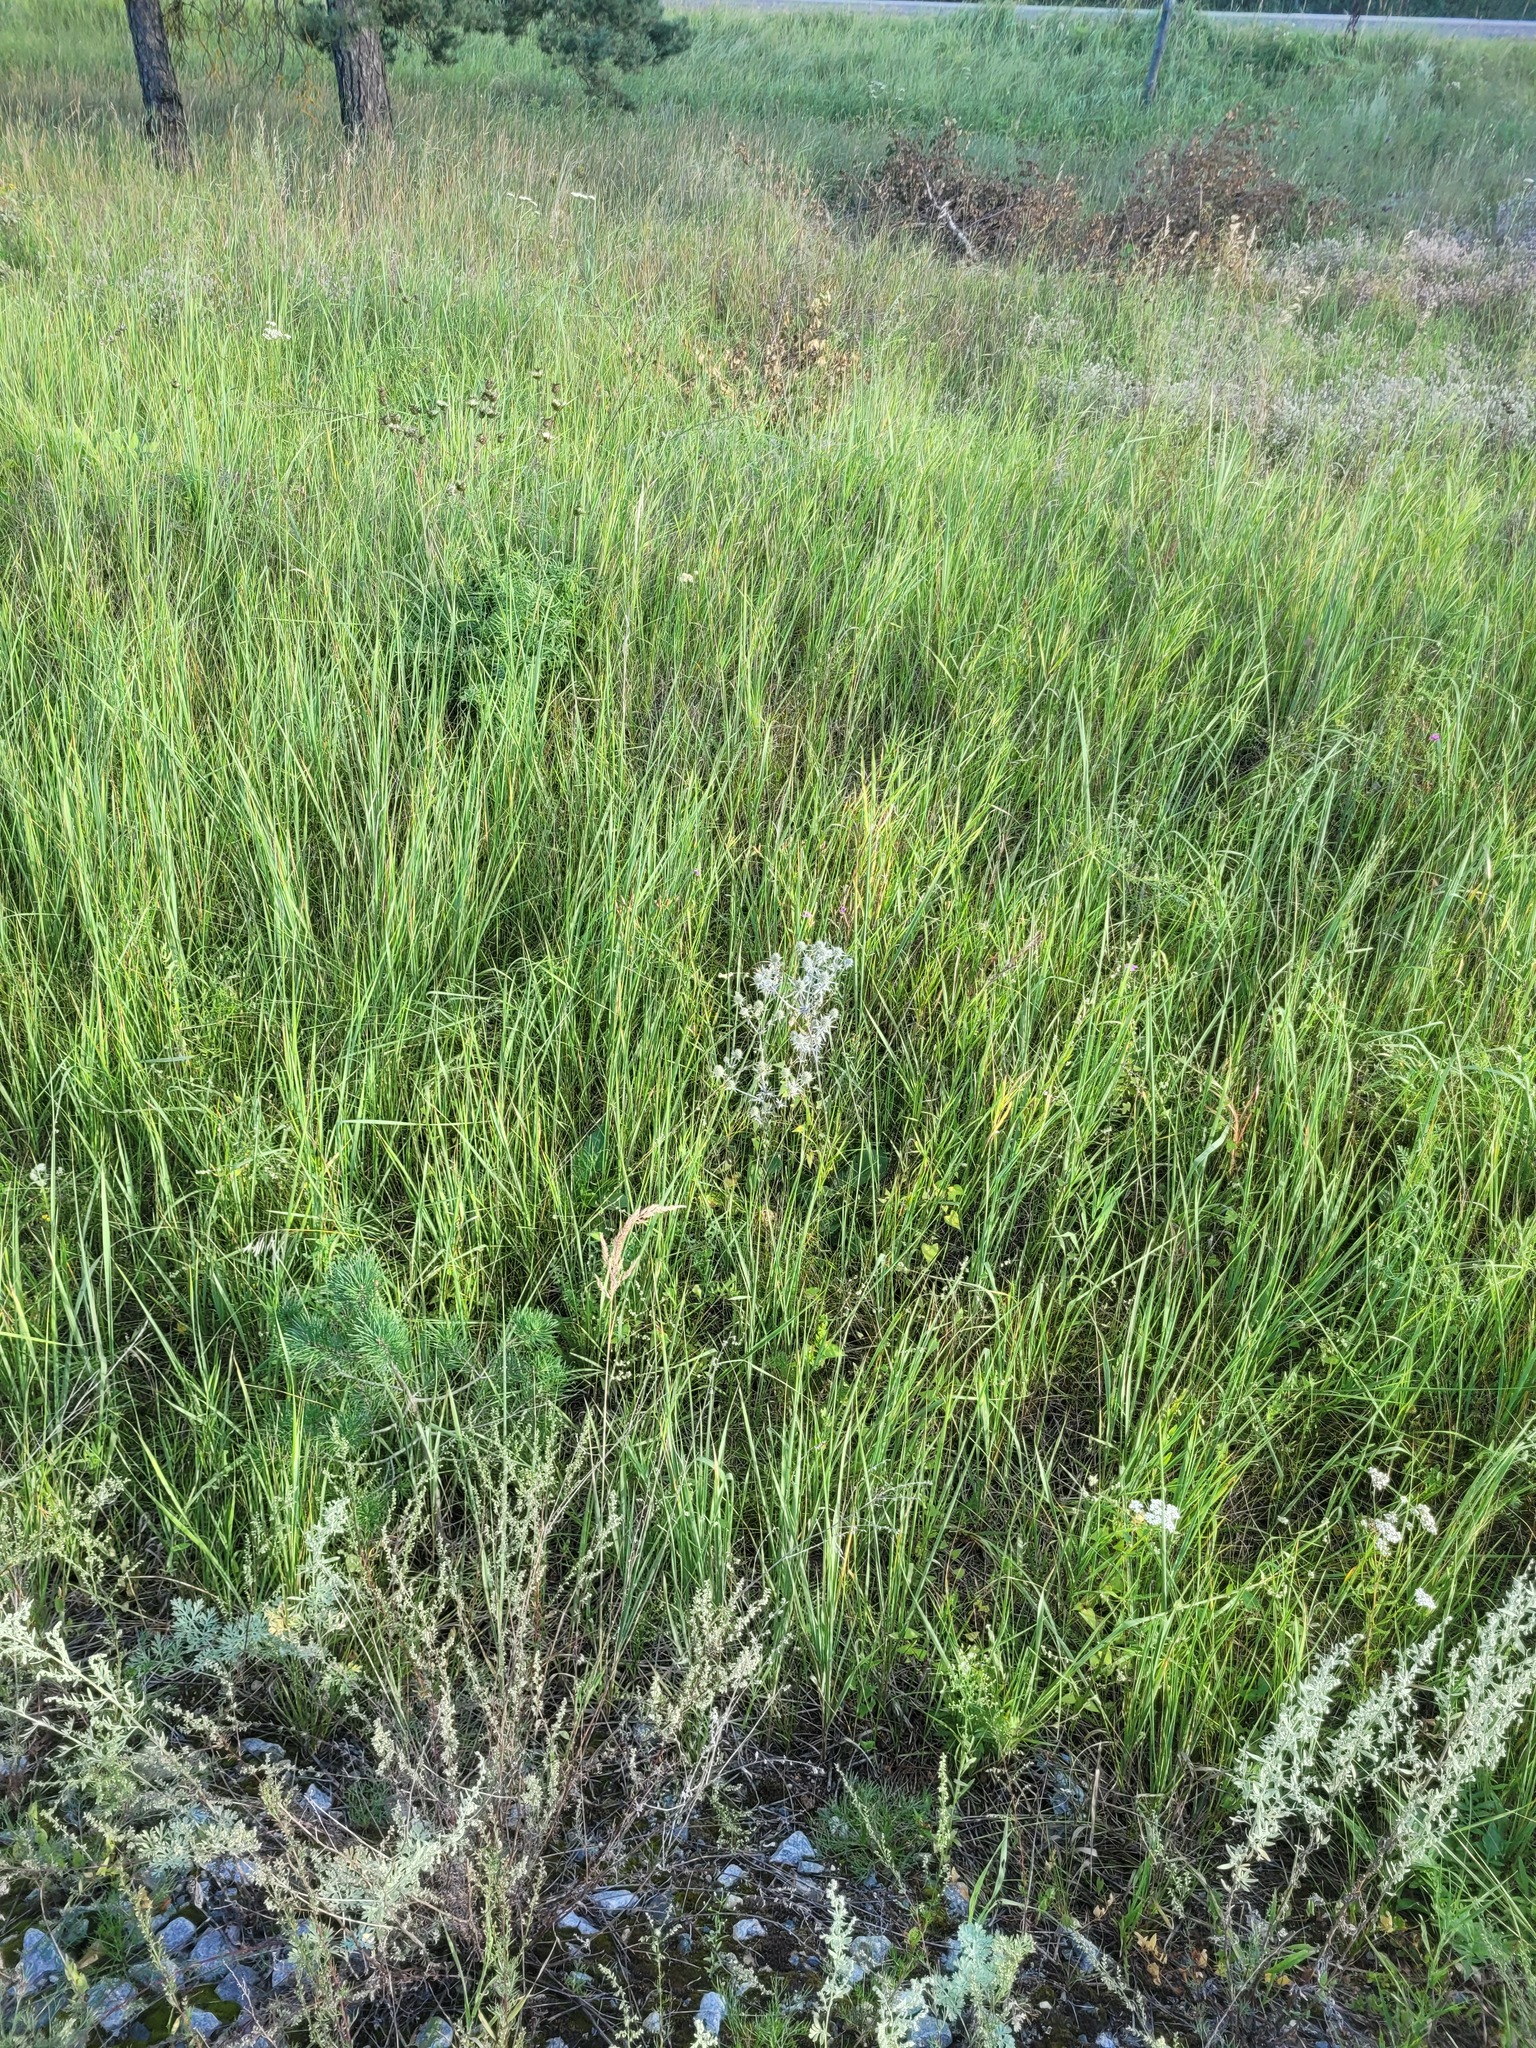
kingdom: Plantae
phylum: Tracheophyta
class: Magnoliopsida
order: Apiales
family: Apiaceae
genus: Eryngium
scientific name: Eryngium planum
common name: Blue eryngo
